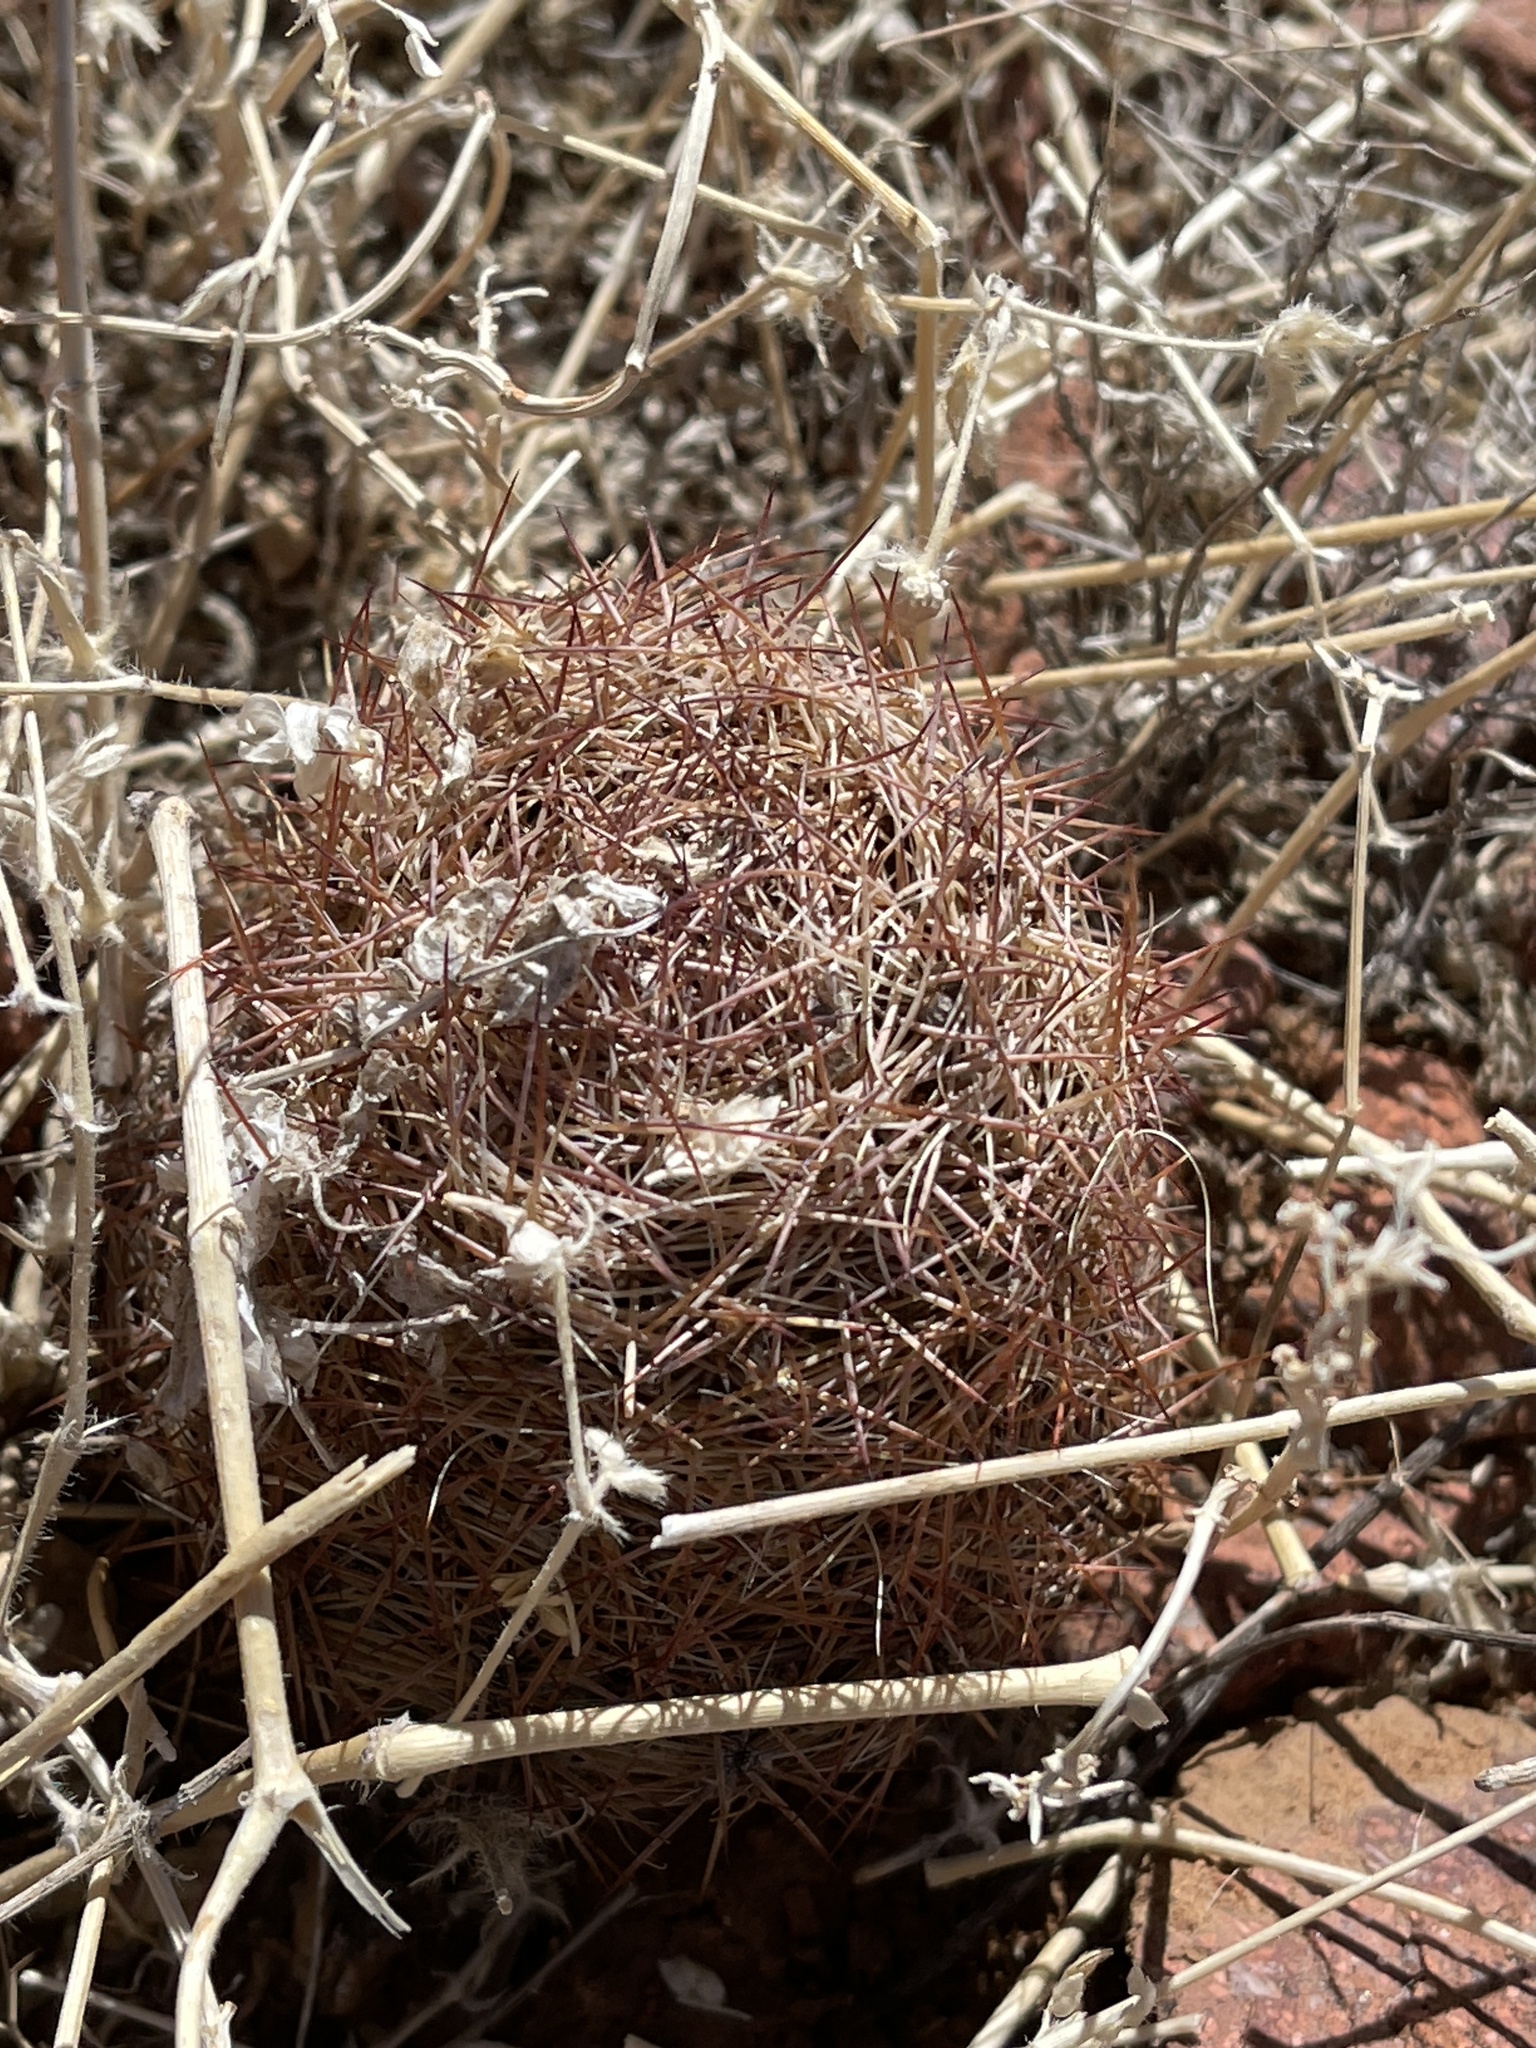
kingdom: Plantae
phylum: Tracheophyta
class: Magnoliopsida
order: Caryophyllales
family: Cactaceae
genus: Sclerocactus
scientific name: Sclerocactus intertextus
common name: White fish-hook cactus
